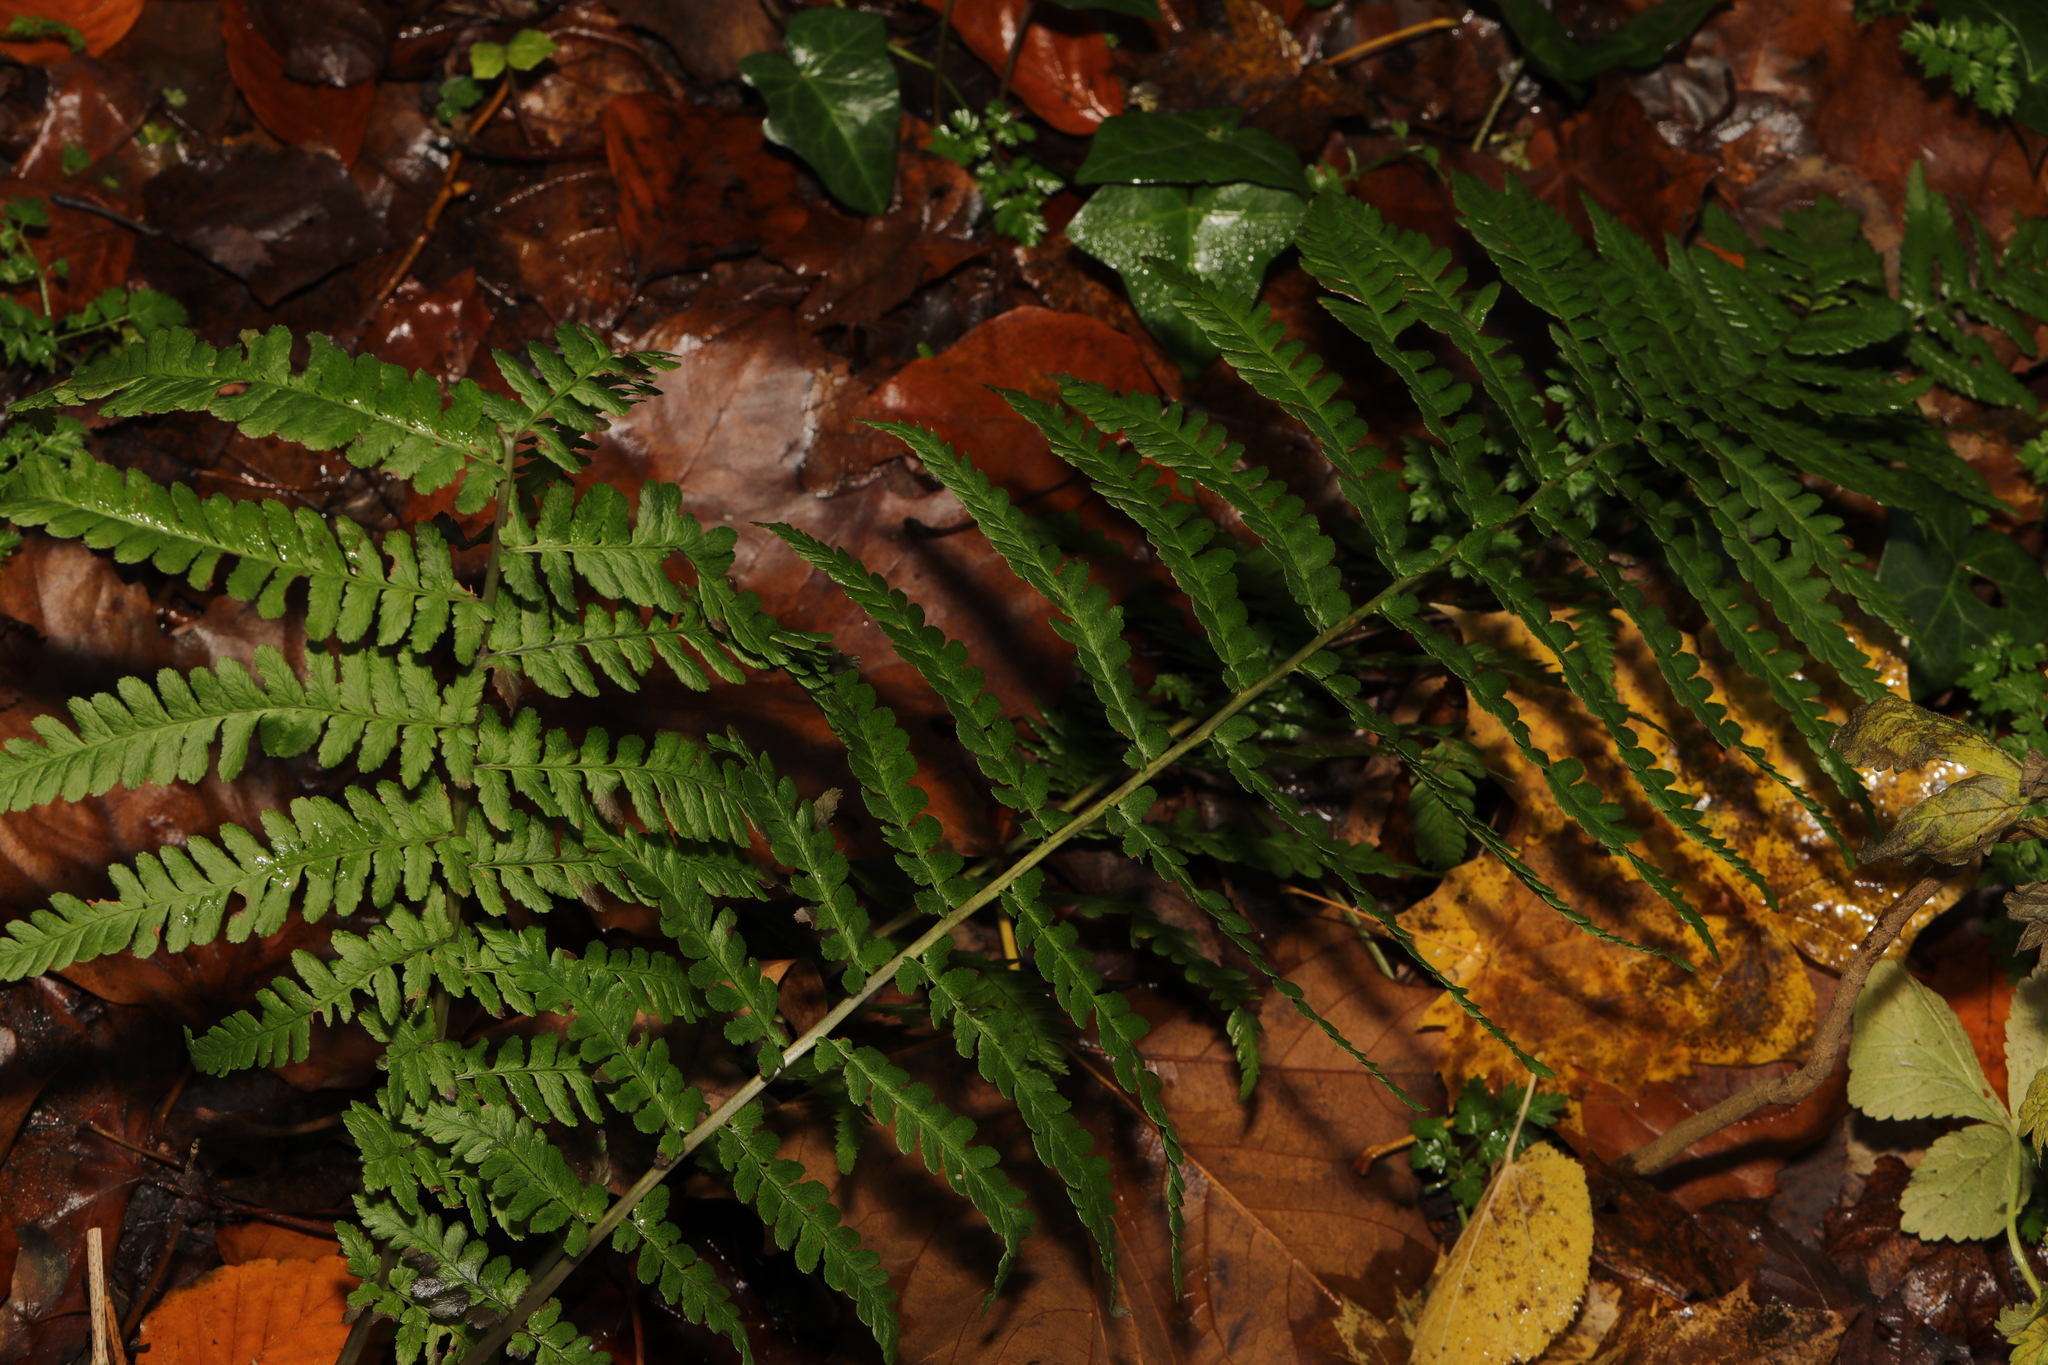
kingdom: Plantae
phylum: Tracheophyta
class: Polypodiopsida
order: Polypodiales
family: Dryopteridaceae
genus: Dryopteris
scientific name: Dryopteris filix-mas
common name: Male fern
